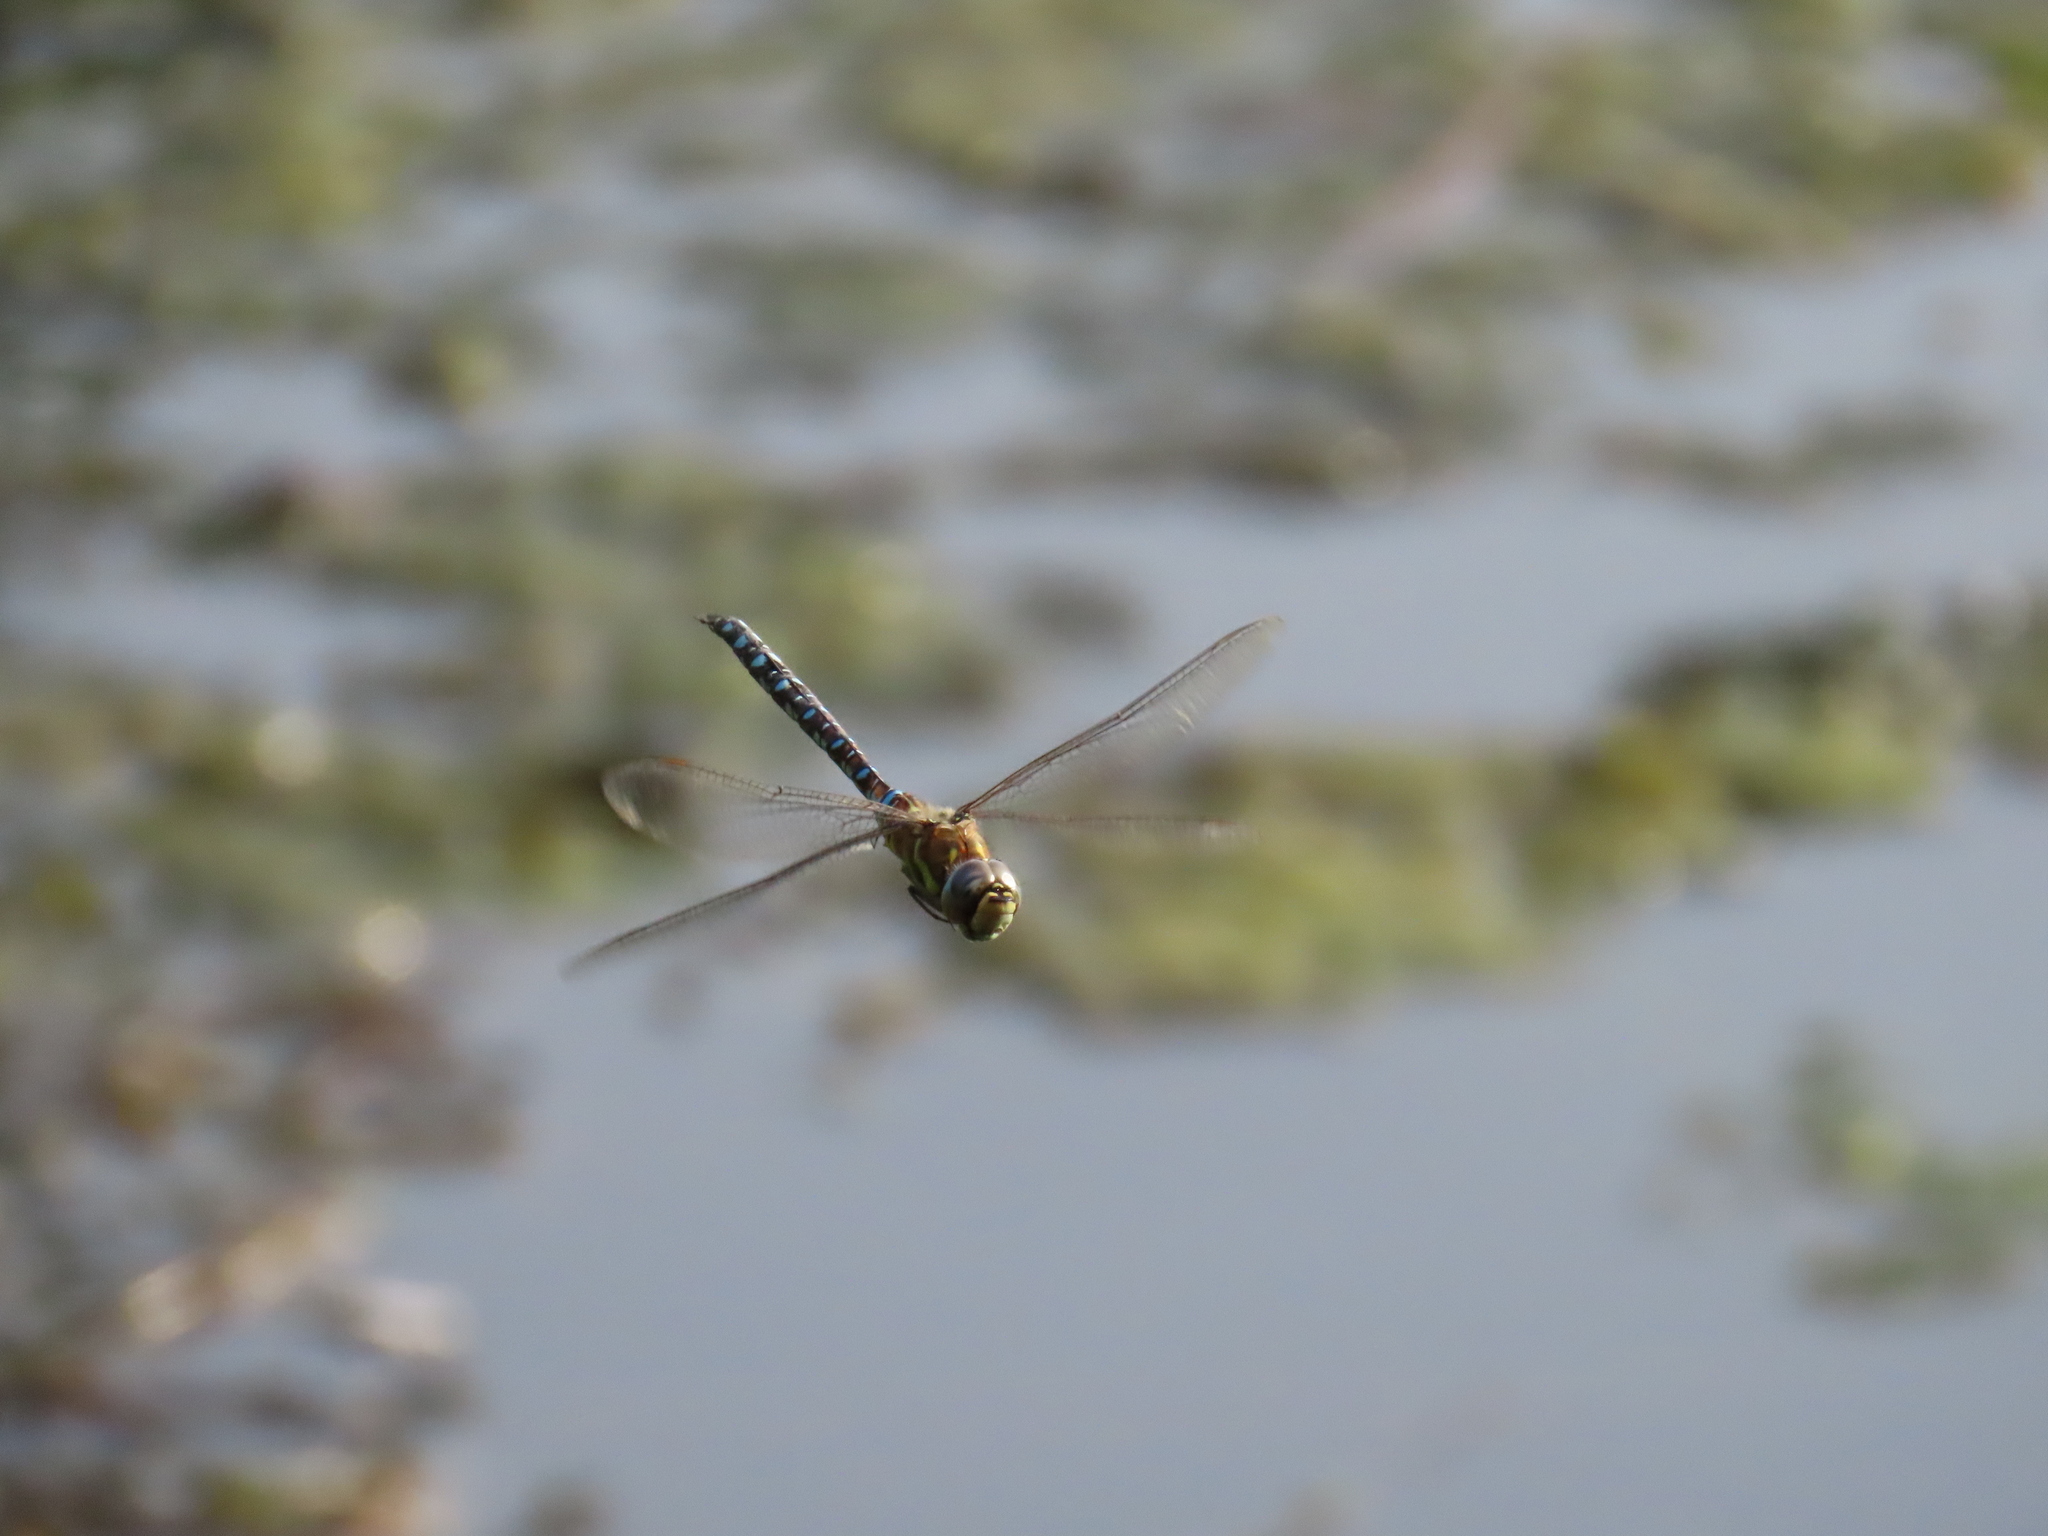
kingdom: Animalia
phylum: Arthropoda
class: Insecta
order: Odonata
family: Aeshnidae
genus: Aeshna
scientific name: Aeshna mixta
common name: Migrant hawker
